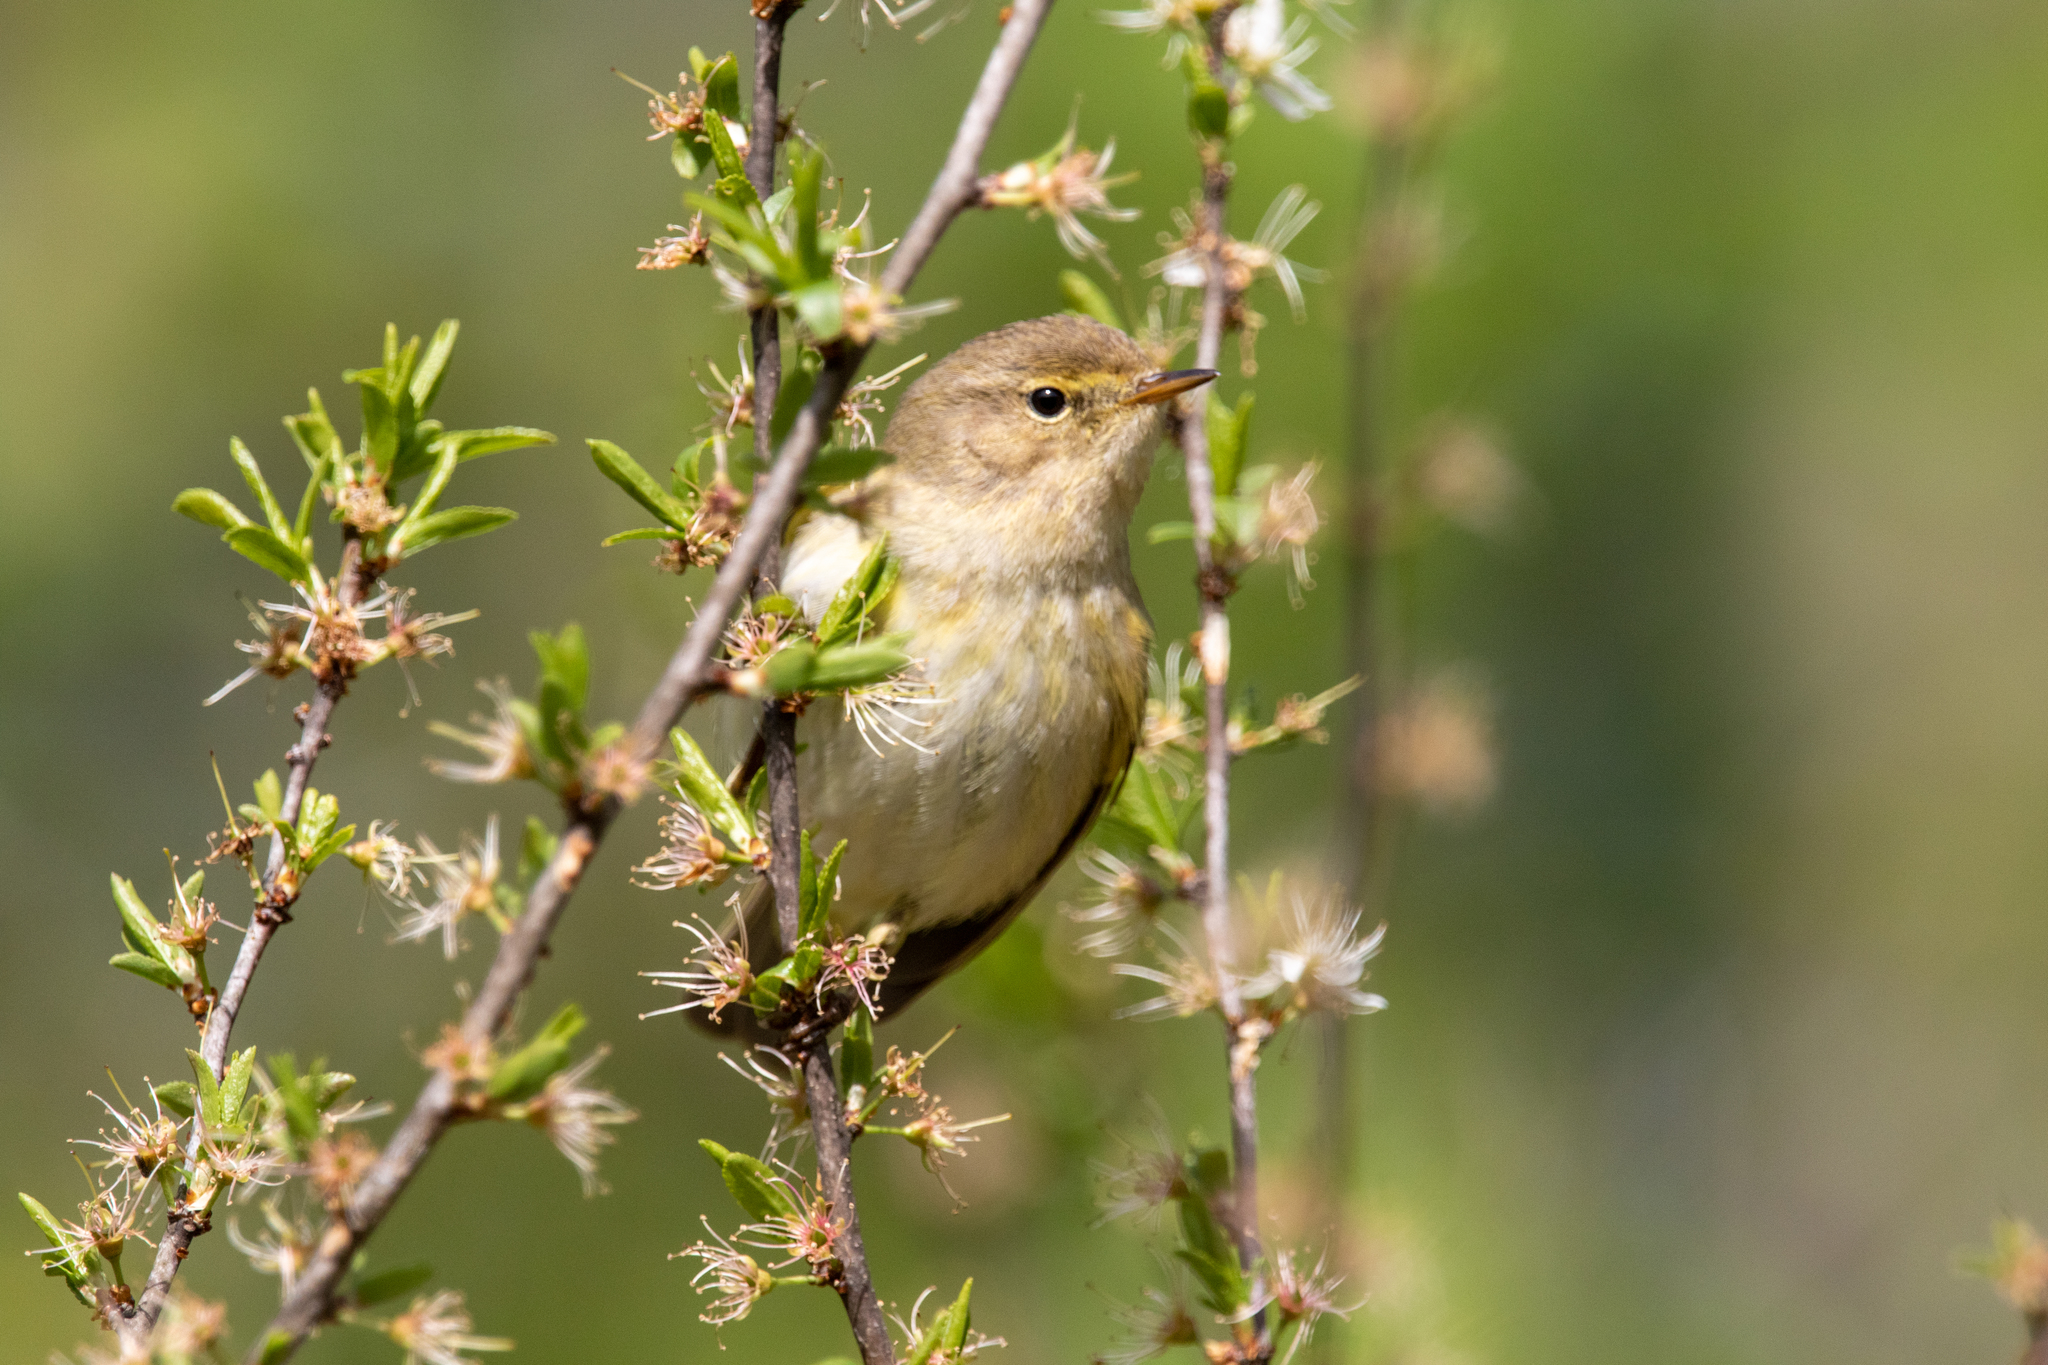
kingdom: Animalia
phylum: Chordata
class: Aves
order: Passeriformes
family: Phylloscopidae
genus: Phylloscopus
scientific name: Phylloscopus collybita
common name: Common chiffchaff
